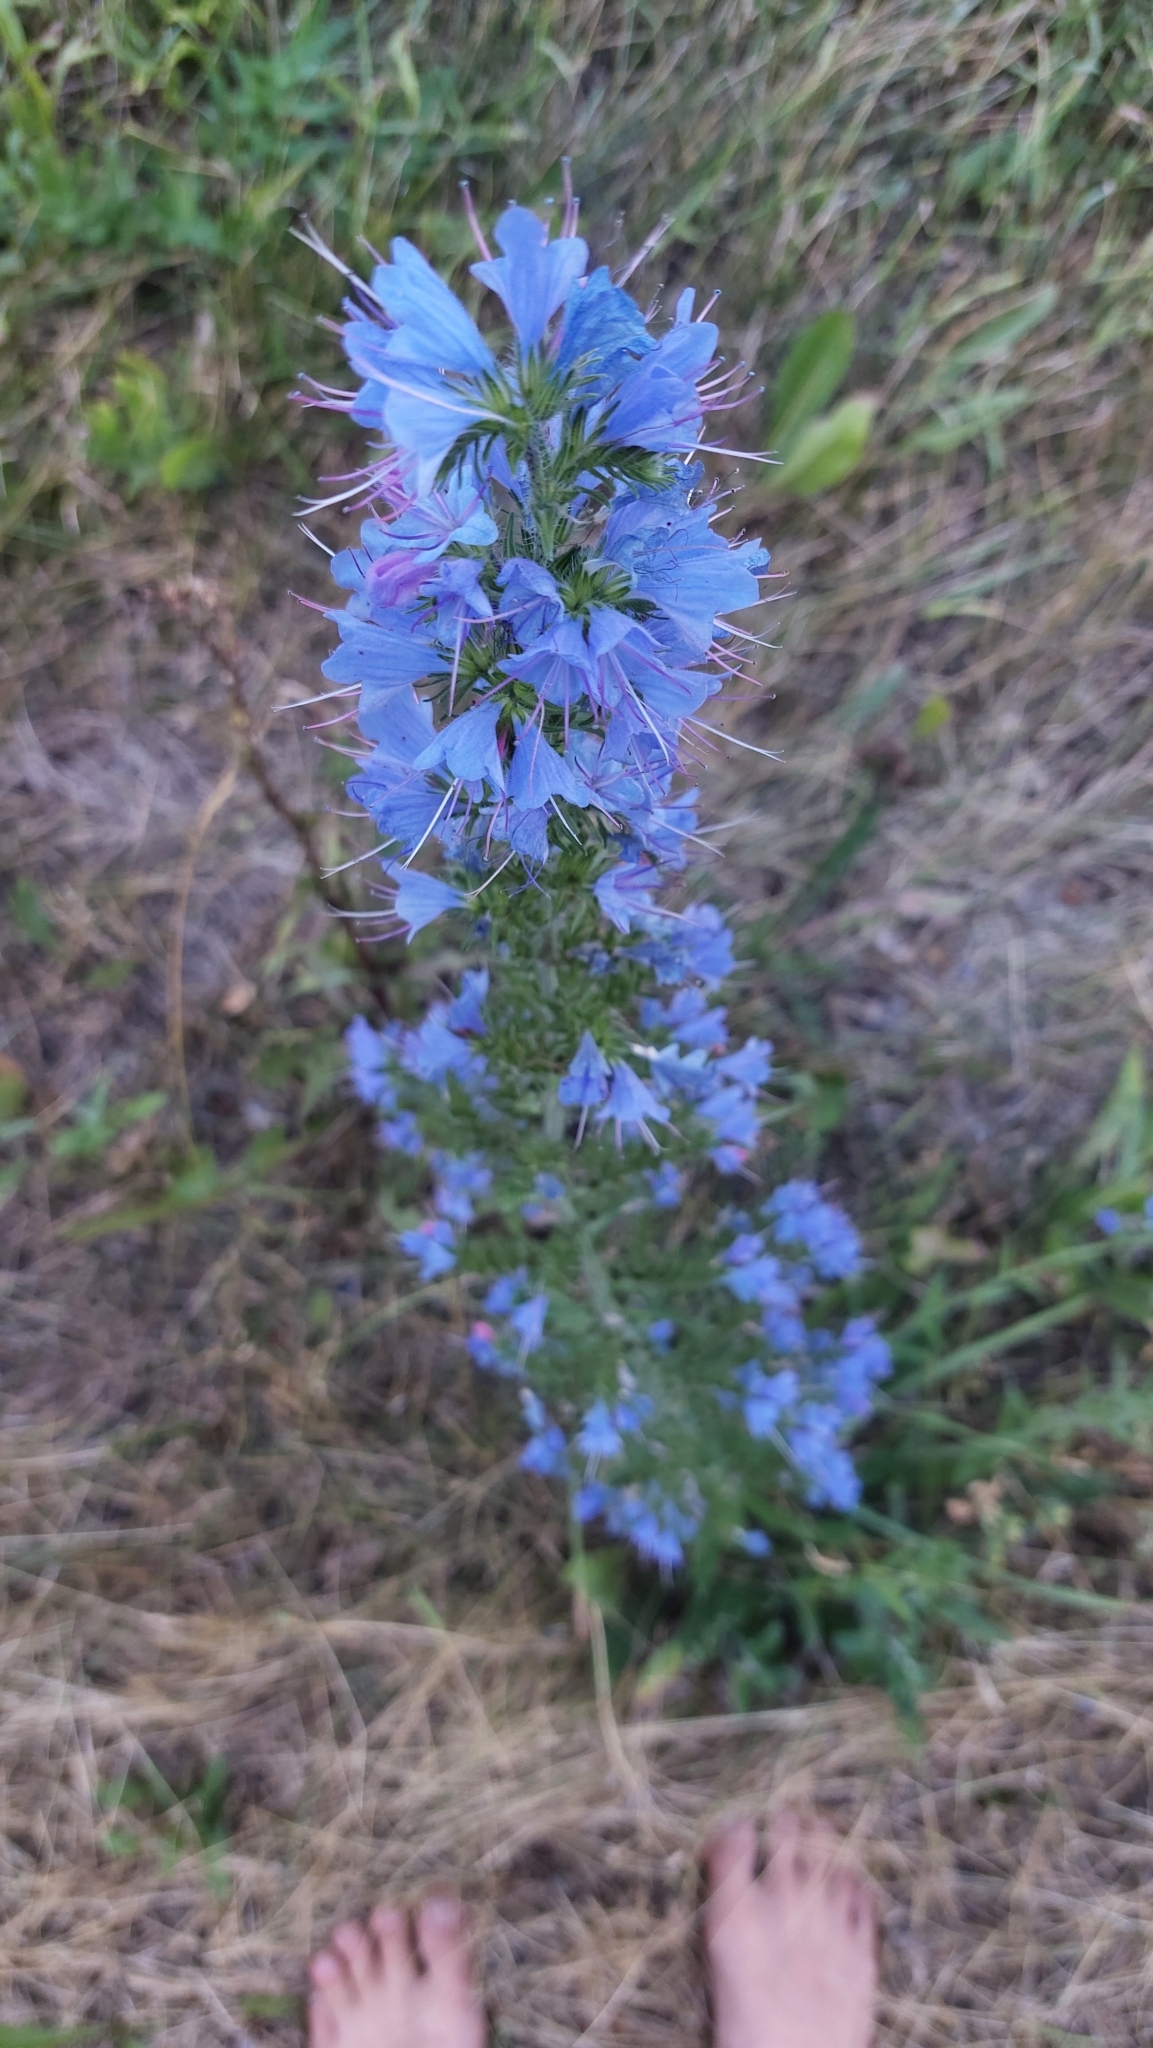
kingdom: Plantae
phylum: Tracheophyta
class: Magnoliopsida
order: Boraginales
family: Boraginaceae
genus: Echium
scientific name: Echium vulgare
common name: Common viper's bugloss
